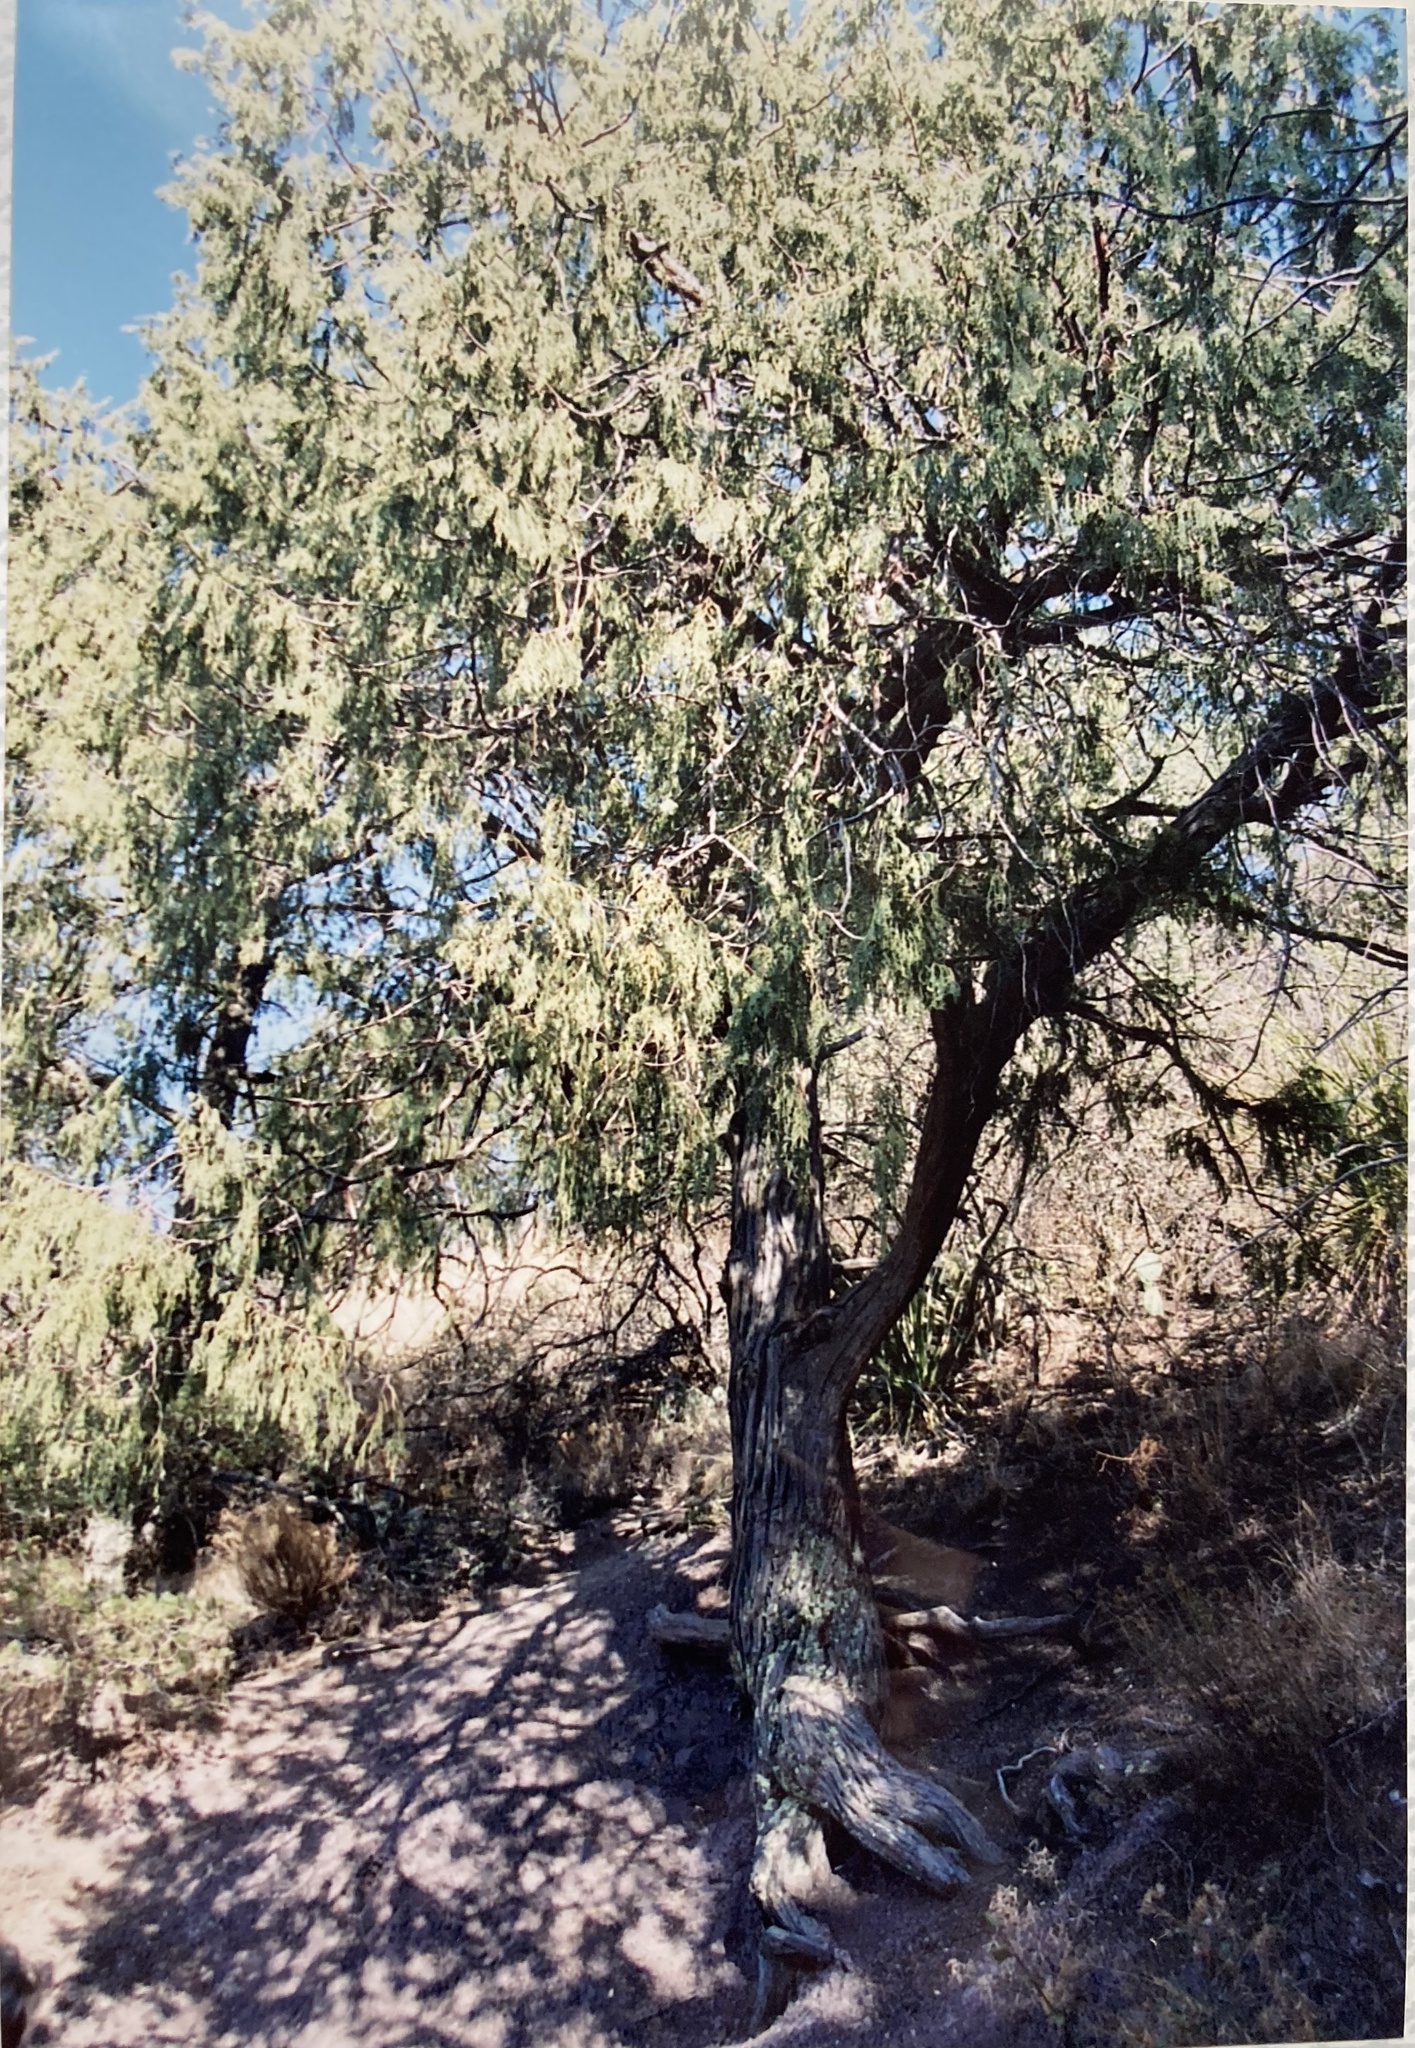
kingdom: Plantae
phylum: Tracheophyta
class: Pinopsida
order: Pinales
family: Cupressaceae
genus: Juniperus
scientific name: Juniperus flaccida
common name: Drooping juniper
